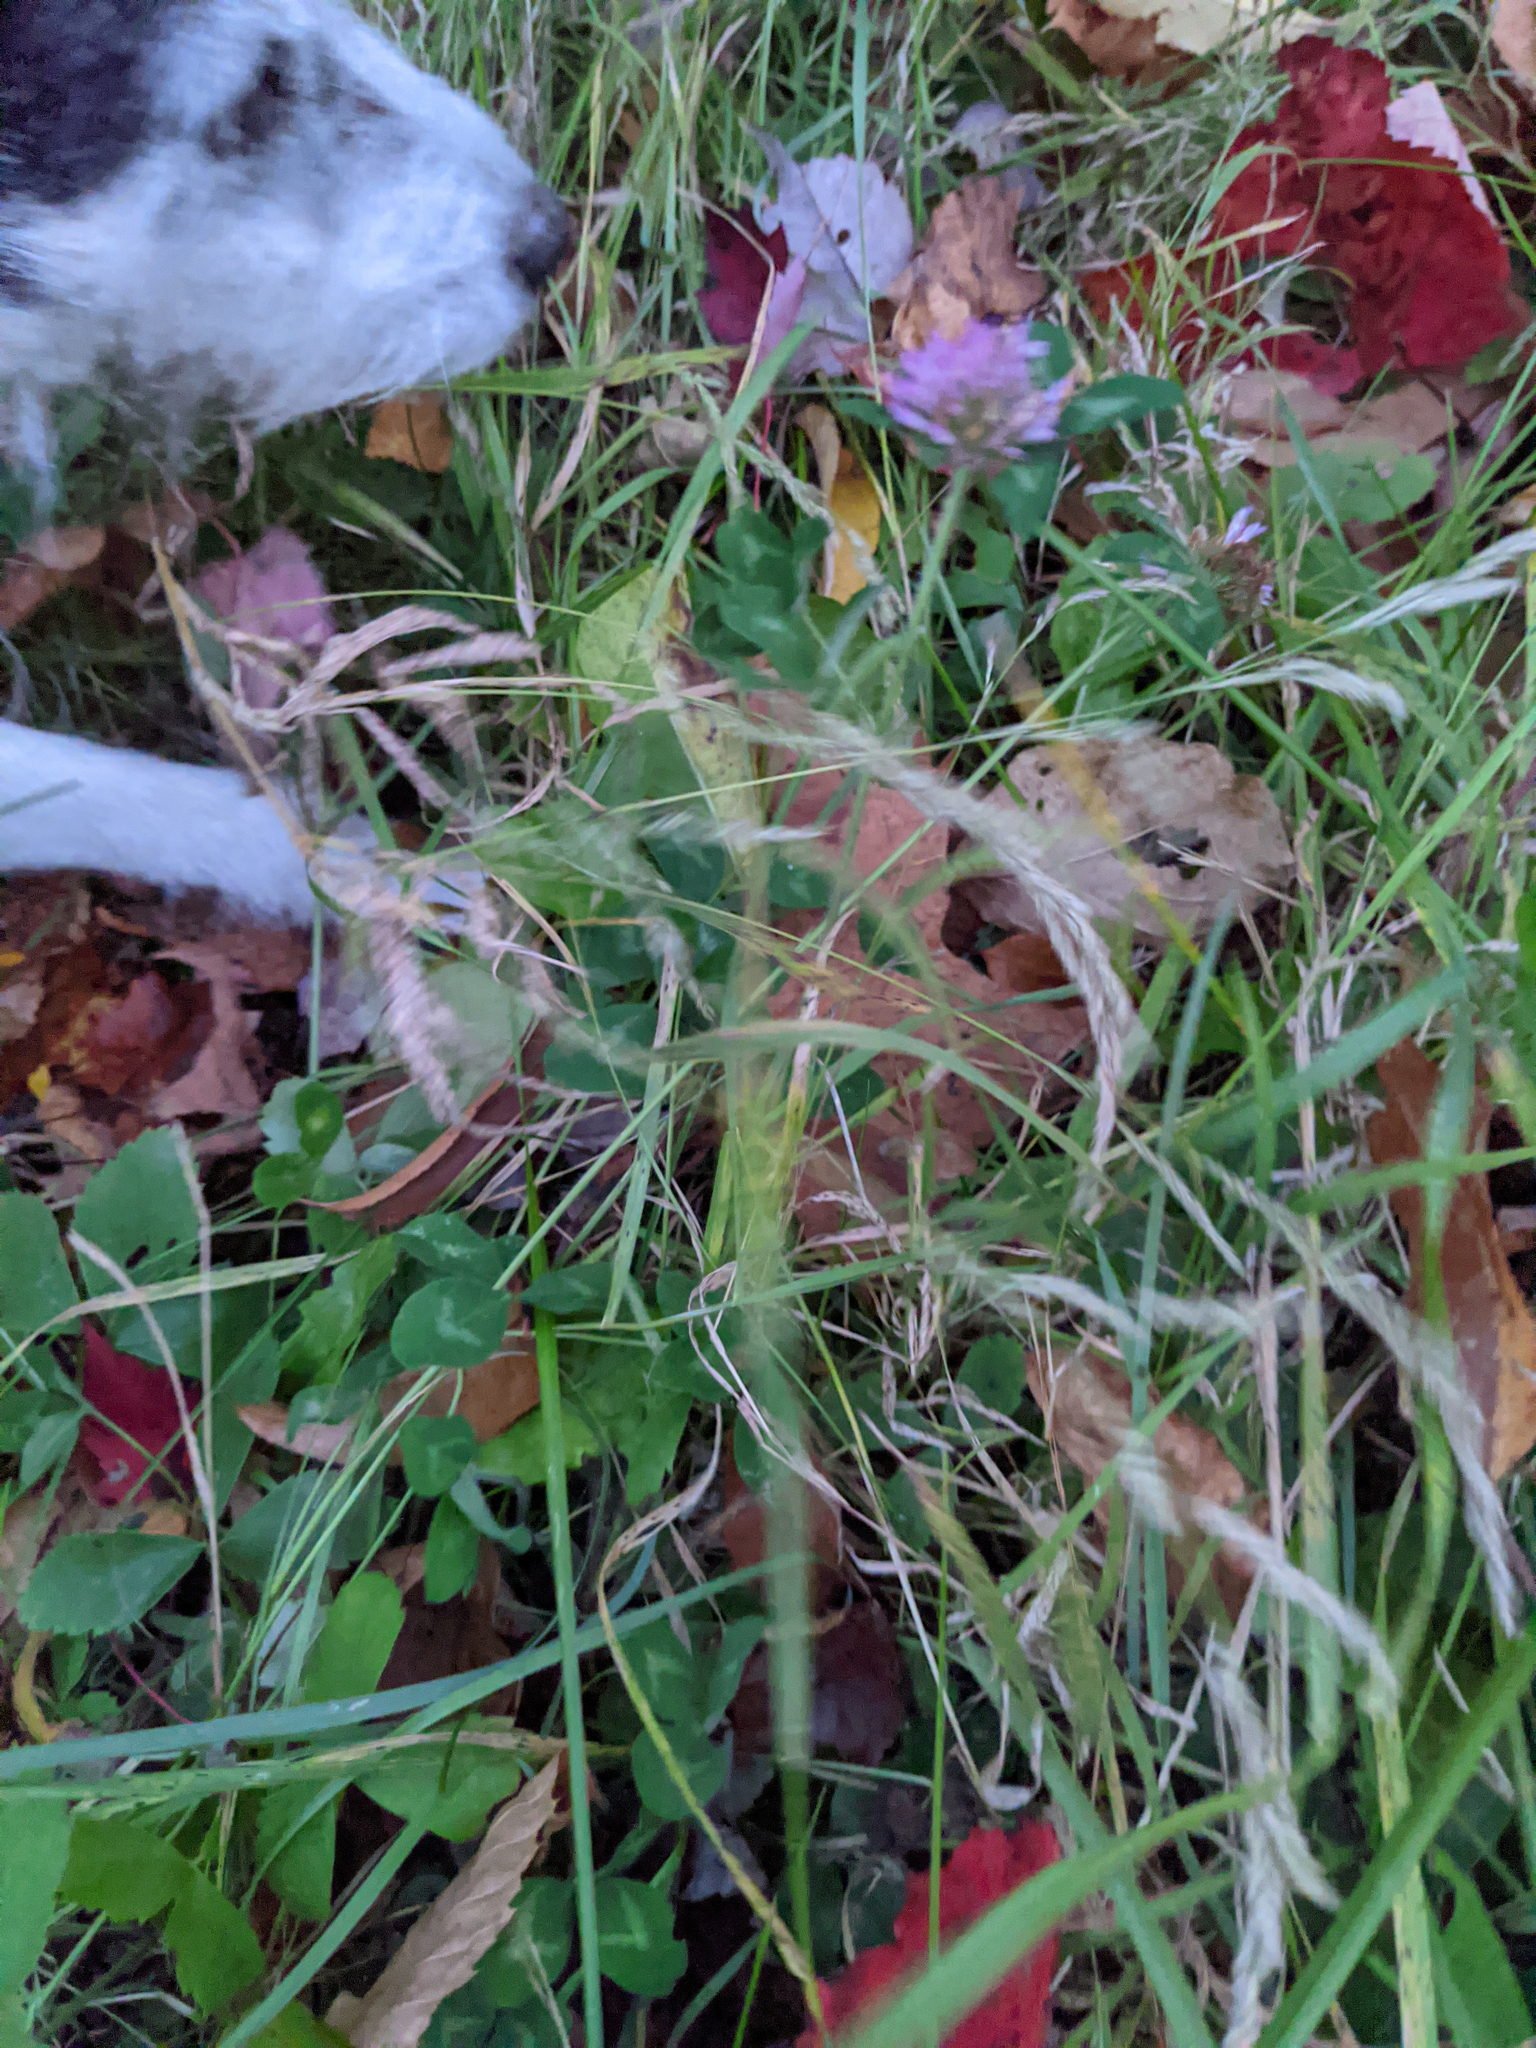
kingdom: Plantae
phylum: Tracheophyta
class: Magnoliopsida
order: Fabales
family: Fabaceae
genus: Trifolium
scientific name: Trifolium pratense
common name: Red clover
